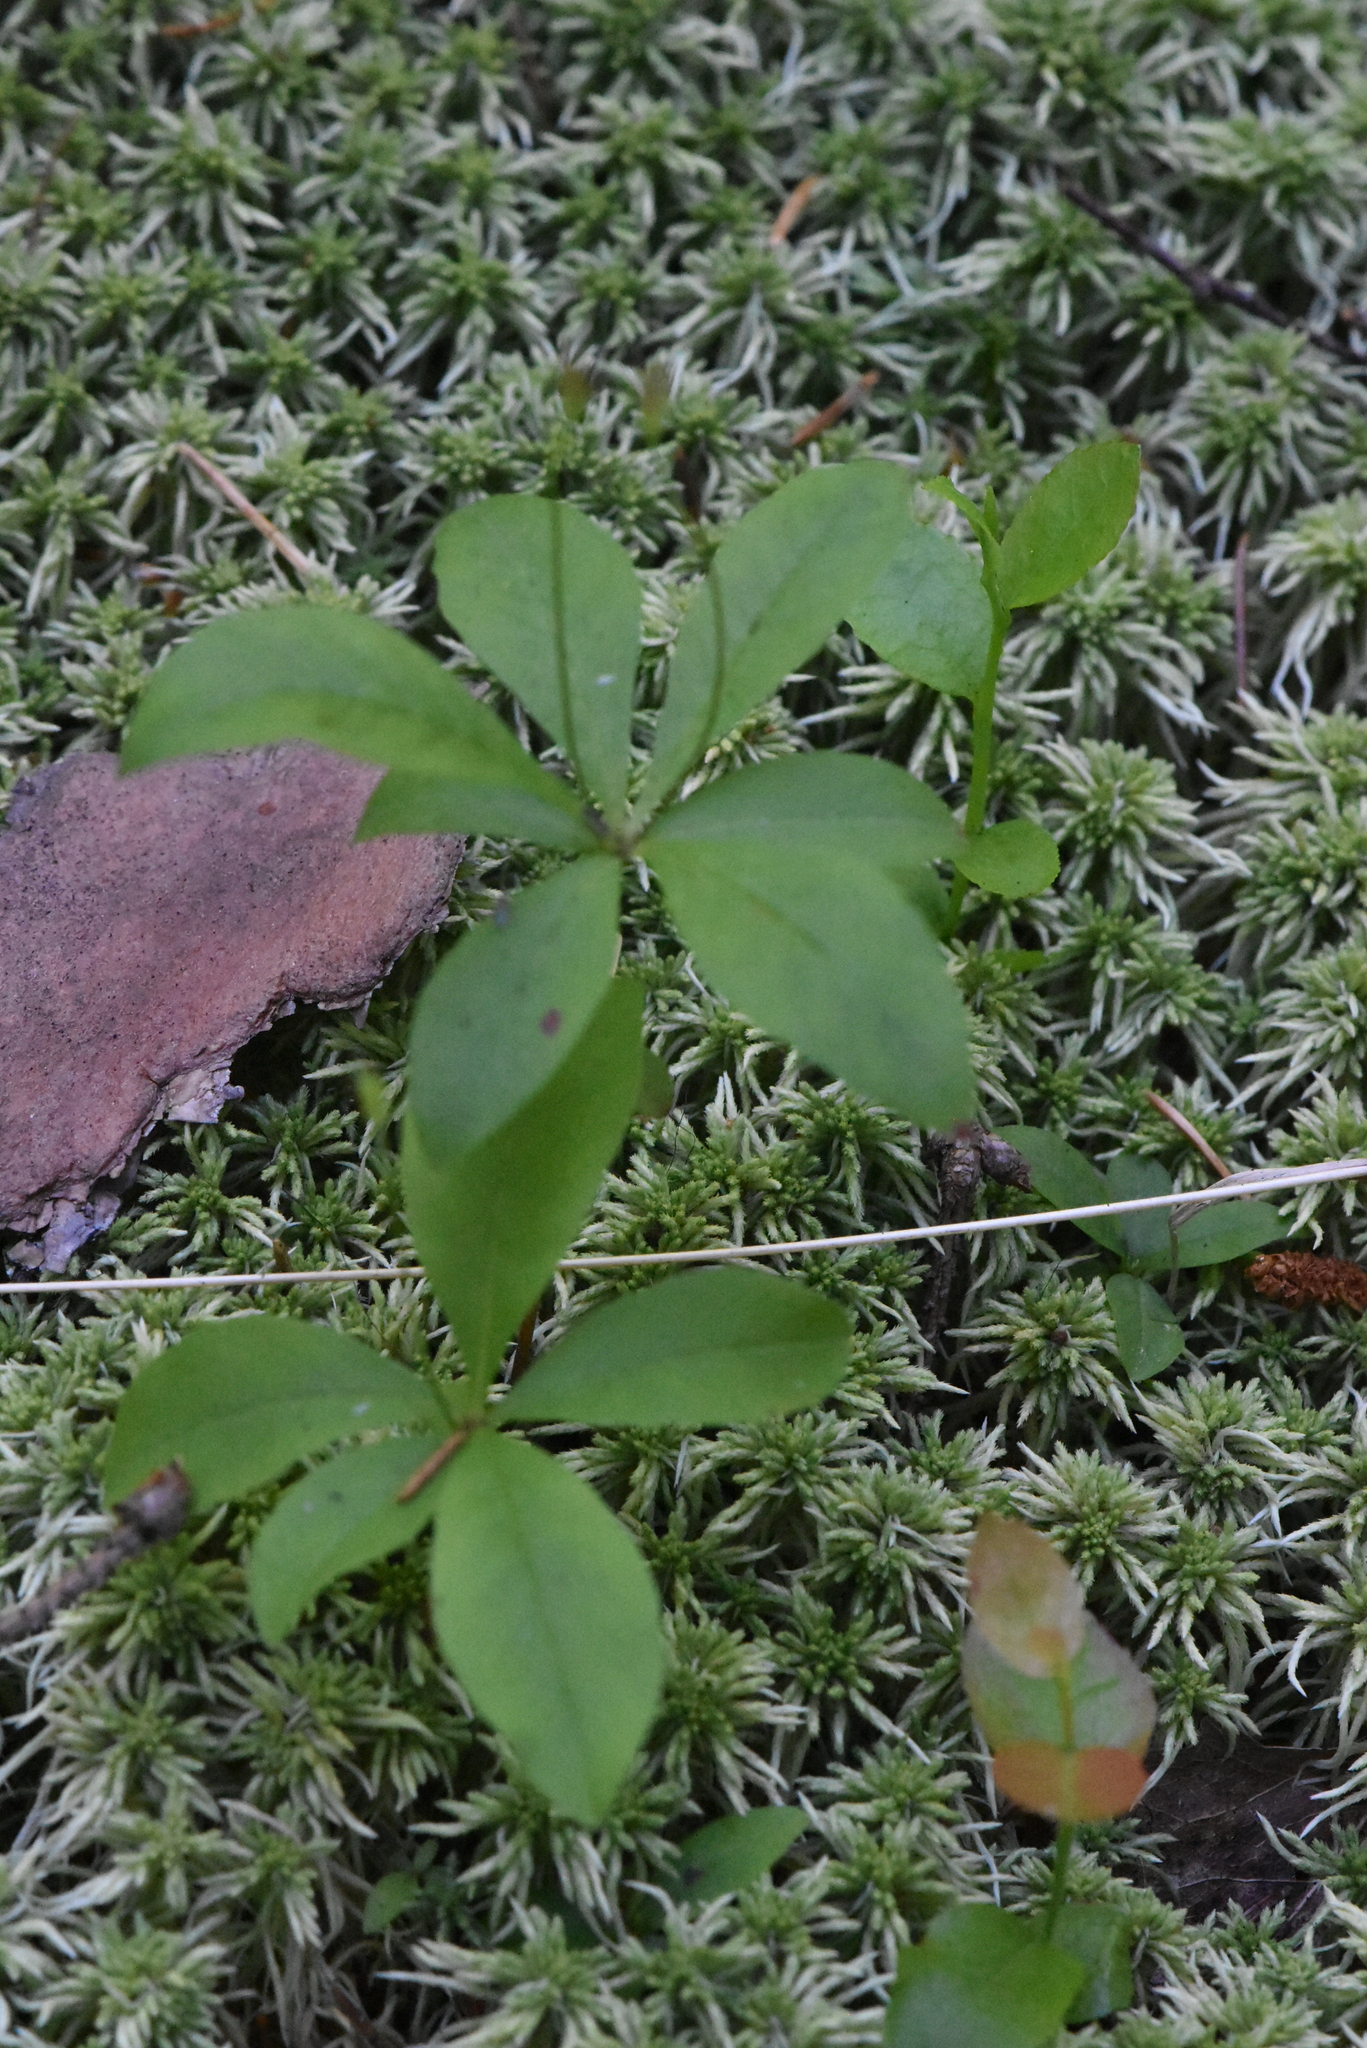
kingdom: Plantae
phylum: Tracheophyta
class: Magnoliopsida
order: Ericales
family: Primulaceae
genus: Lysimachia
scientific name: Lysimachia europaea
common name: Arctic starflower
